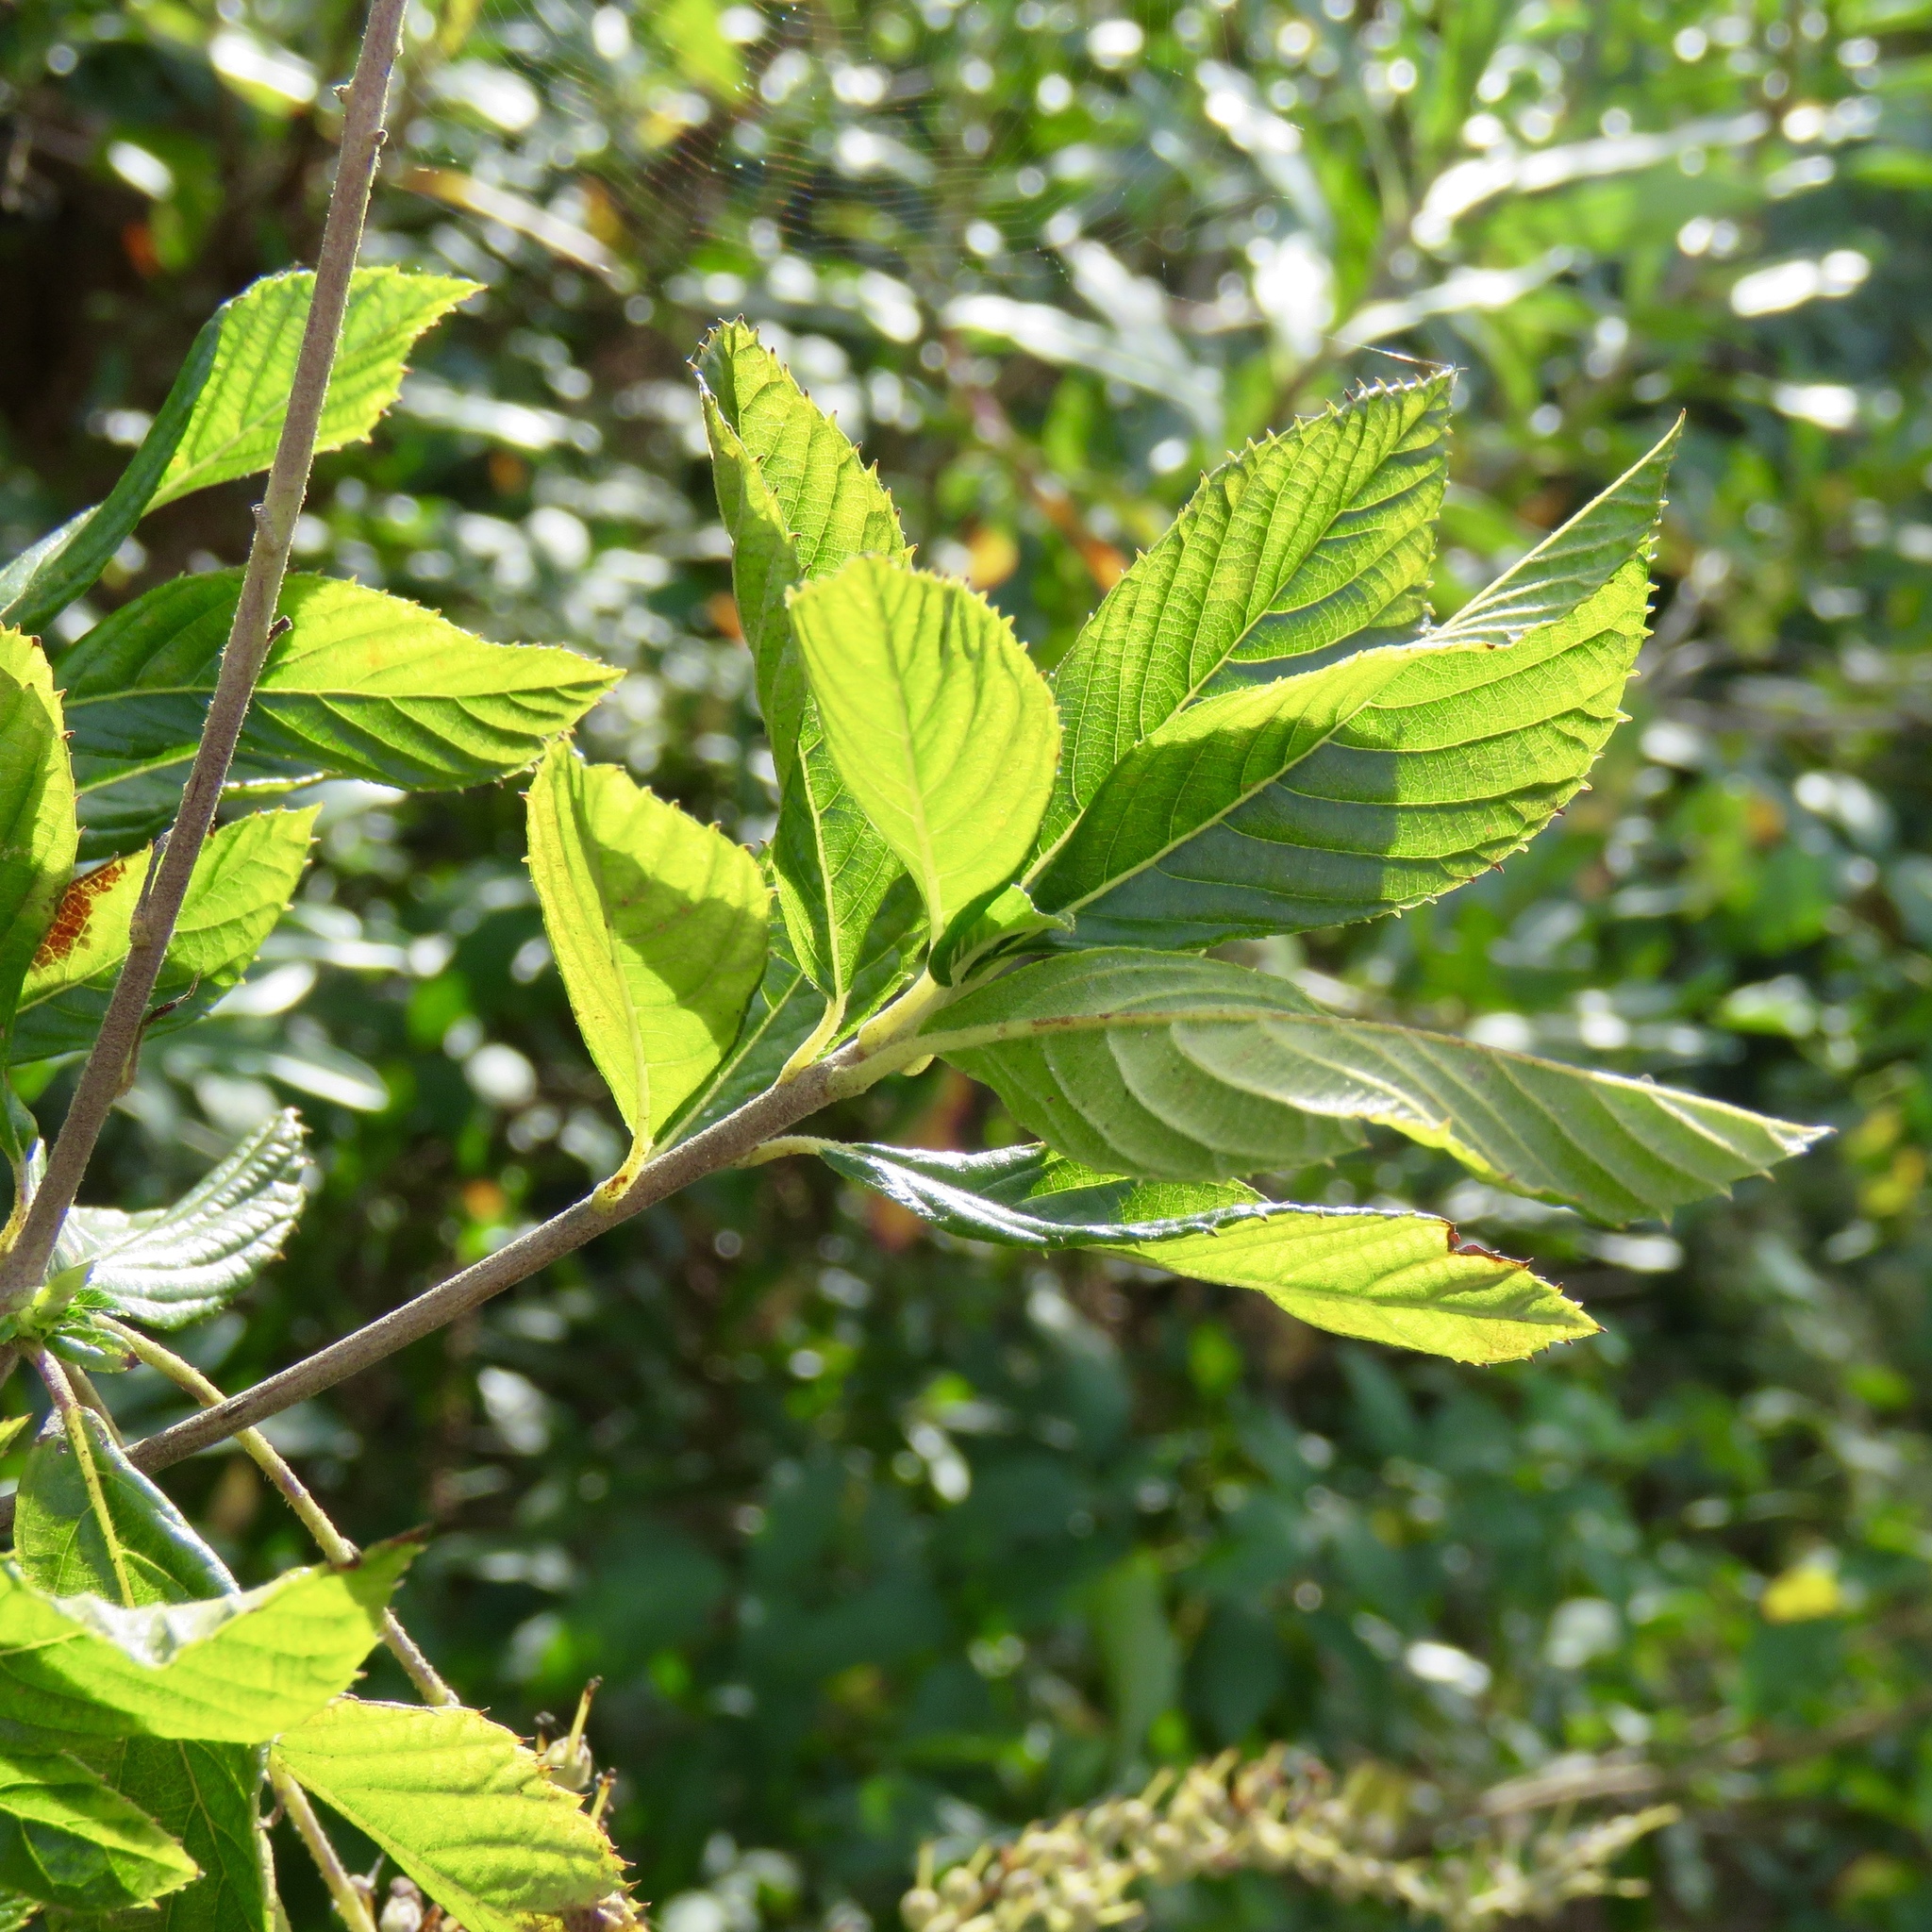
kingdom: Plantae
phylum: Tracheophyta
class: Magnoliopsida
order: Ericales
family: Clethraceae
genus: Clethra
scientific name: Clethra alnifolia
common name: Sweet pepperbush
